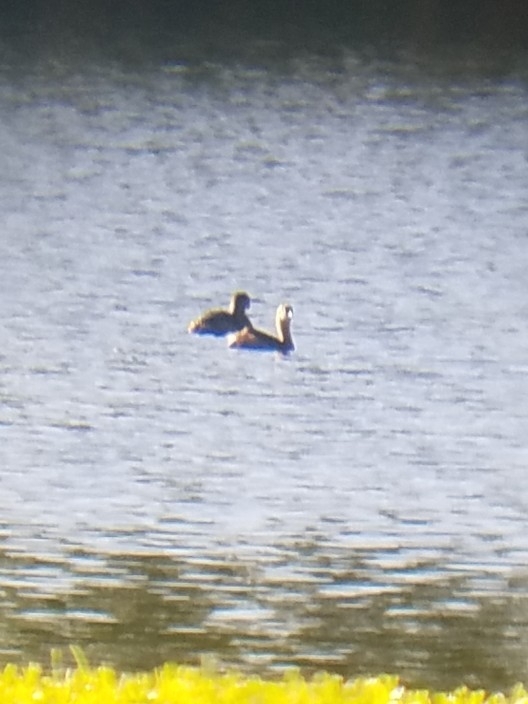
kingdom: Animalia
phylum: Chordata
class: Aves
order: Podicipediformes
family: Podicipedidae
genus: Podilymbus
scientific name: Podilymbus podiceps
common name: Pied-billed grebe
